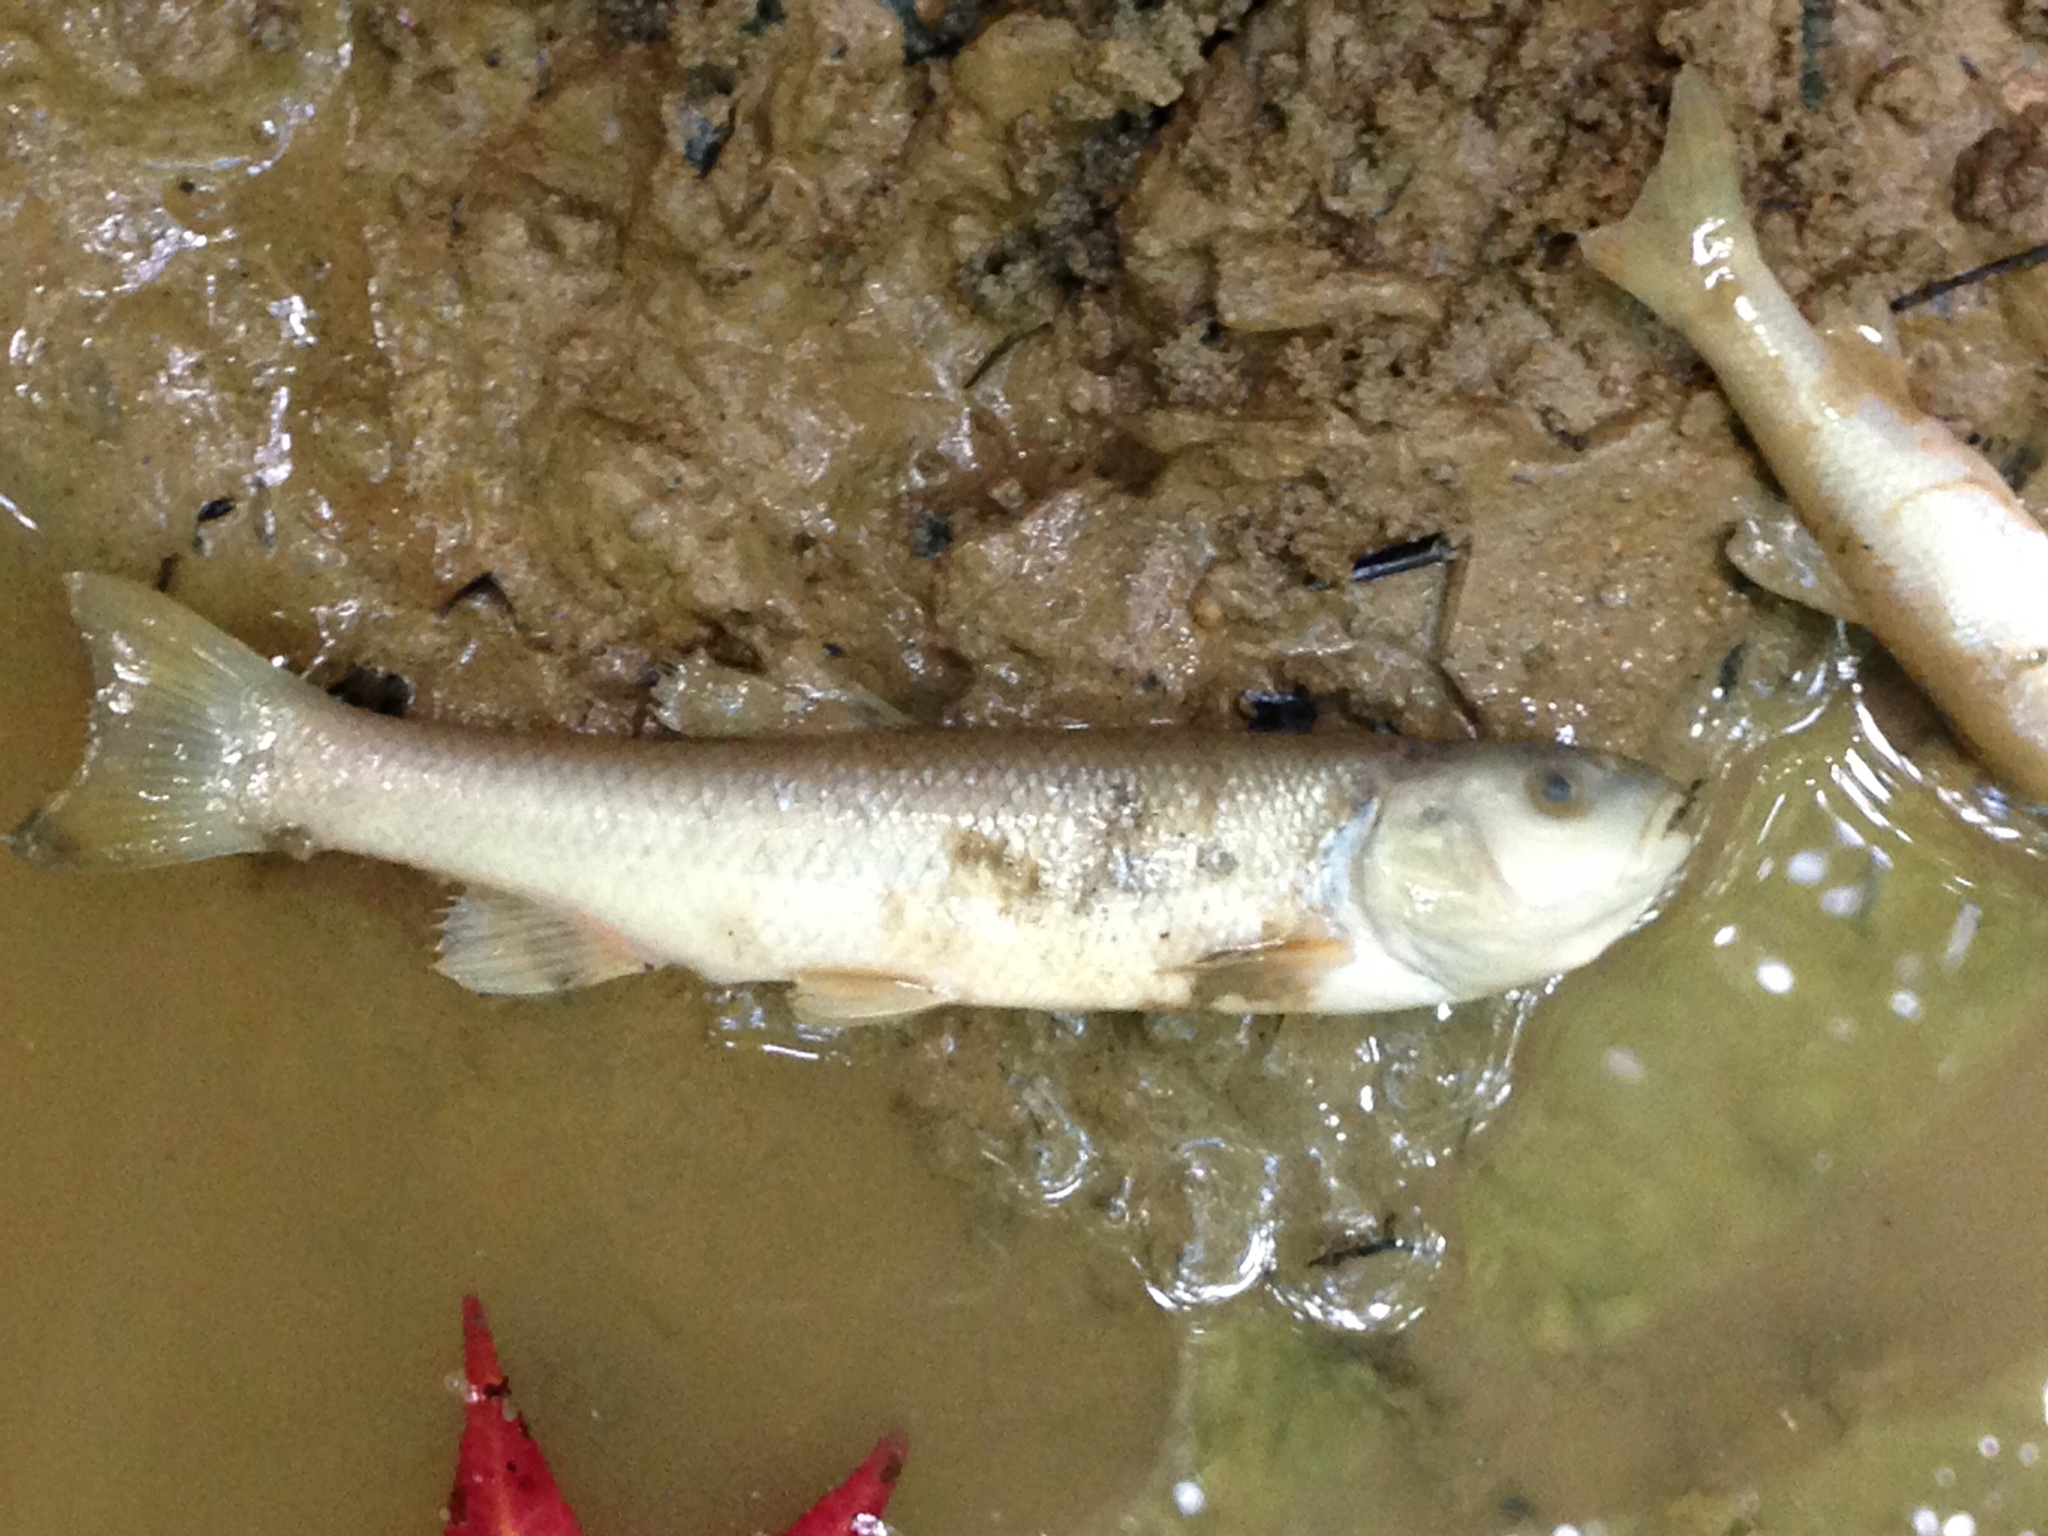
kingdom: Animalia
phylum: Chordata
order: Cypriniformes
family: Cyprinidae
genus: Semotilus
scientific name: Semotilus atromaculatus
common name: Creek chub
